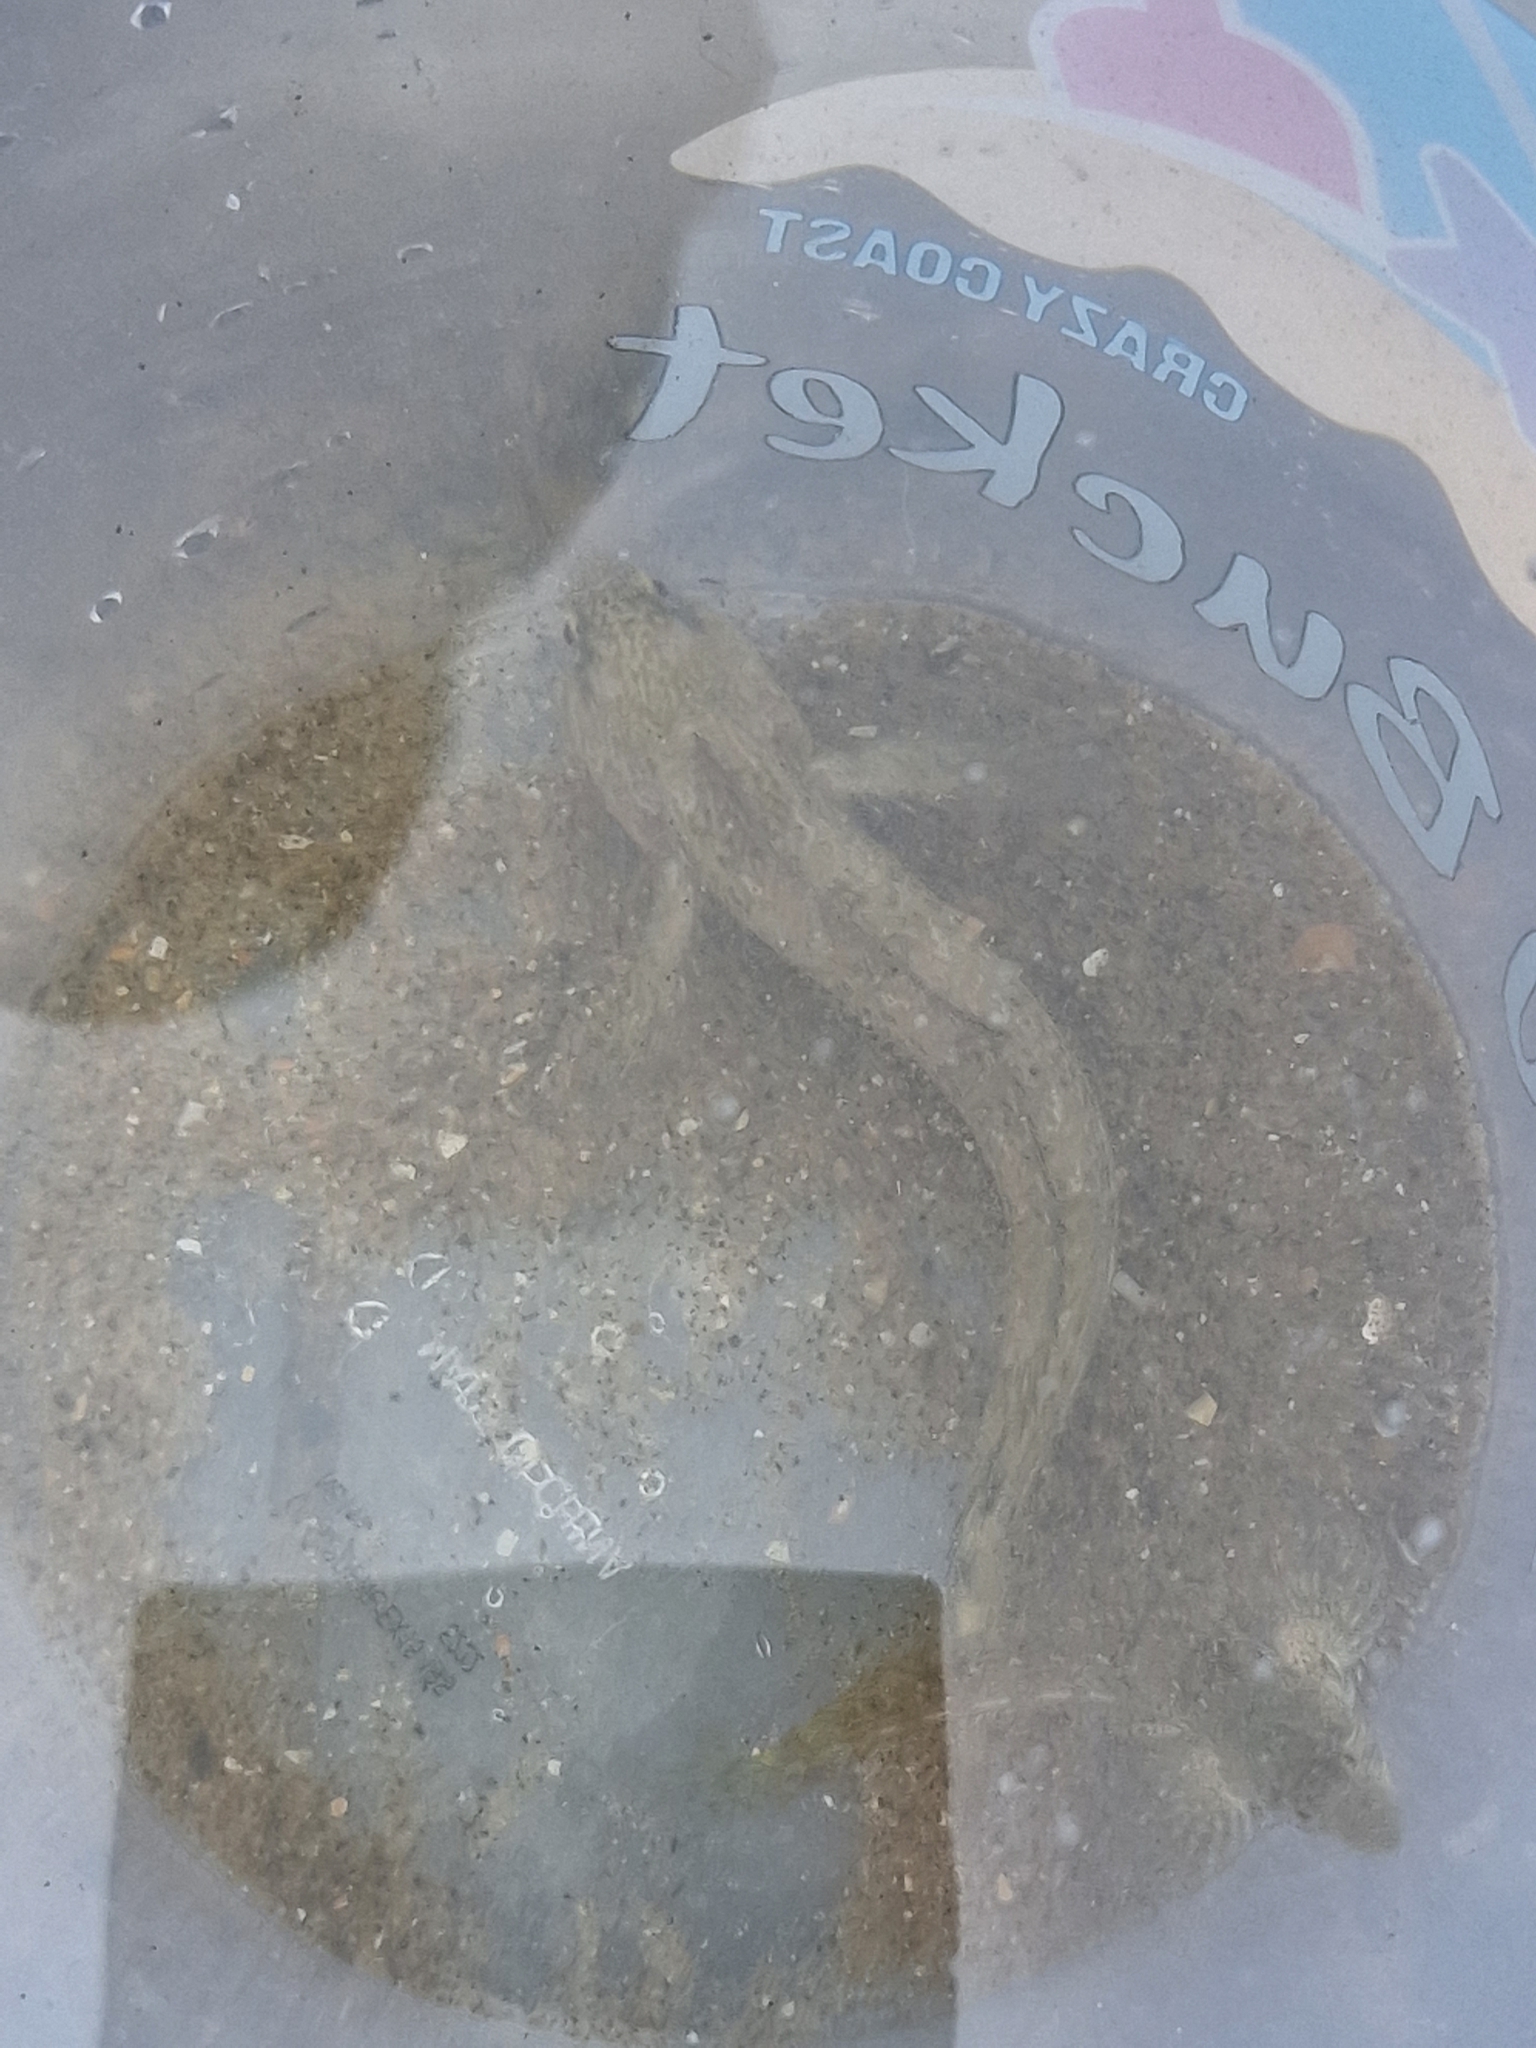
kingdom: Animalia
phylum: Chordata
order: Perciformes
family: Blenniidae
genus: Lipophrys
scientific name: Lipophrys pholis
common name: Shanny
